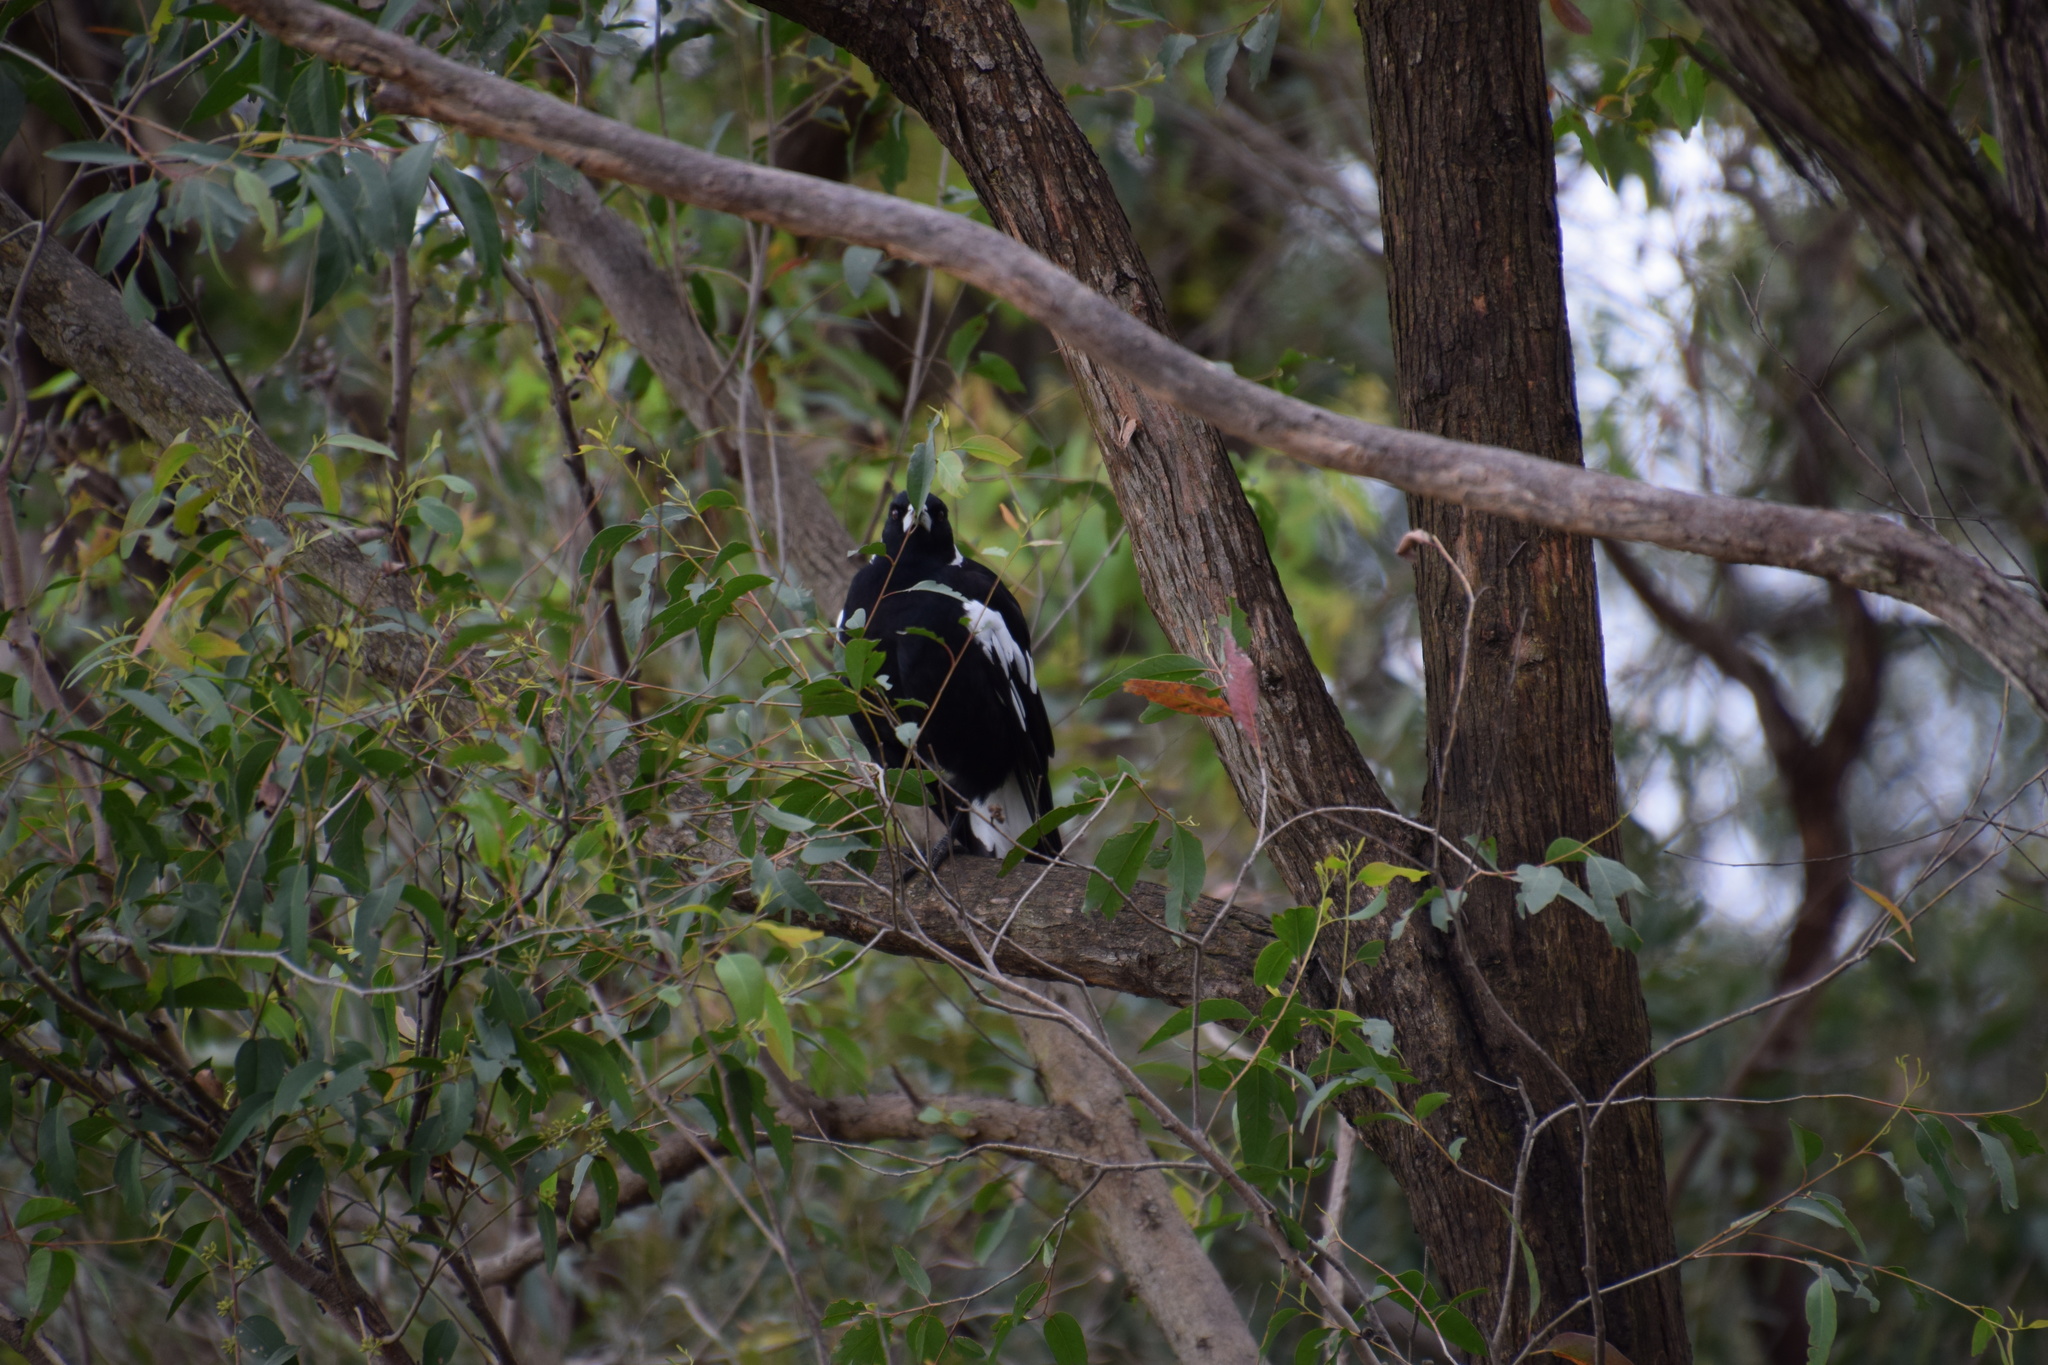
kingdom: Animalia
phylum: Chordata
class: Aves
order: Passeriformes
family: Cracticidae
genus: Gymnorhina
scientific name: Gymnorhina tibicen
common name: Australian magpie
